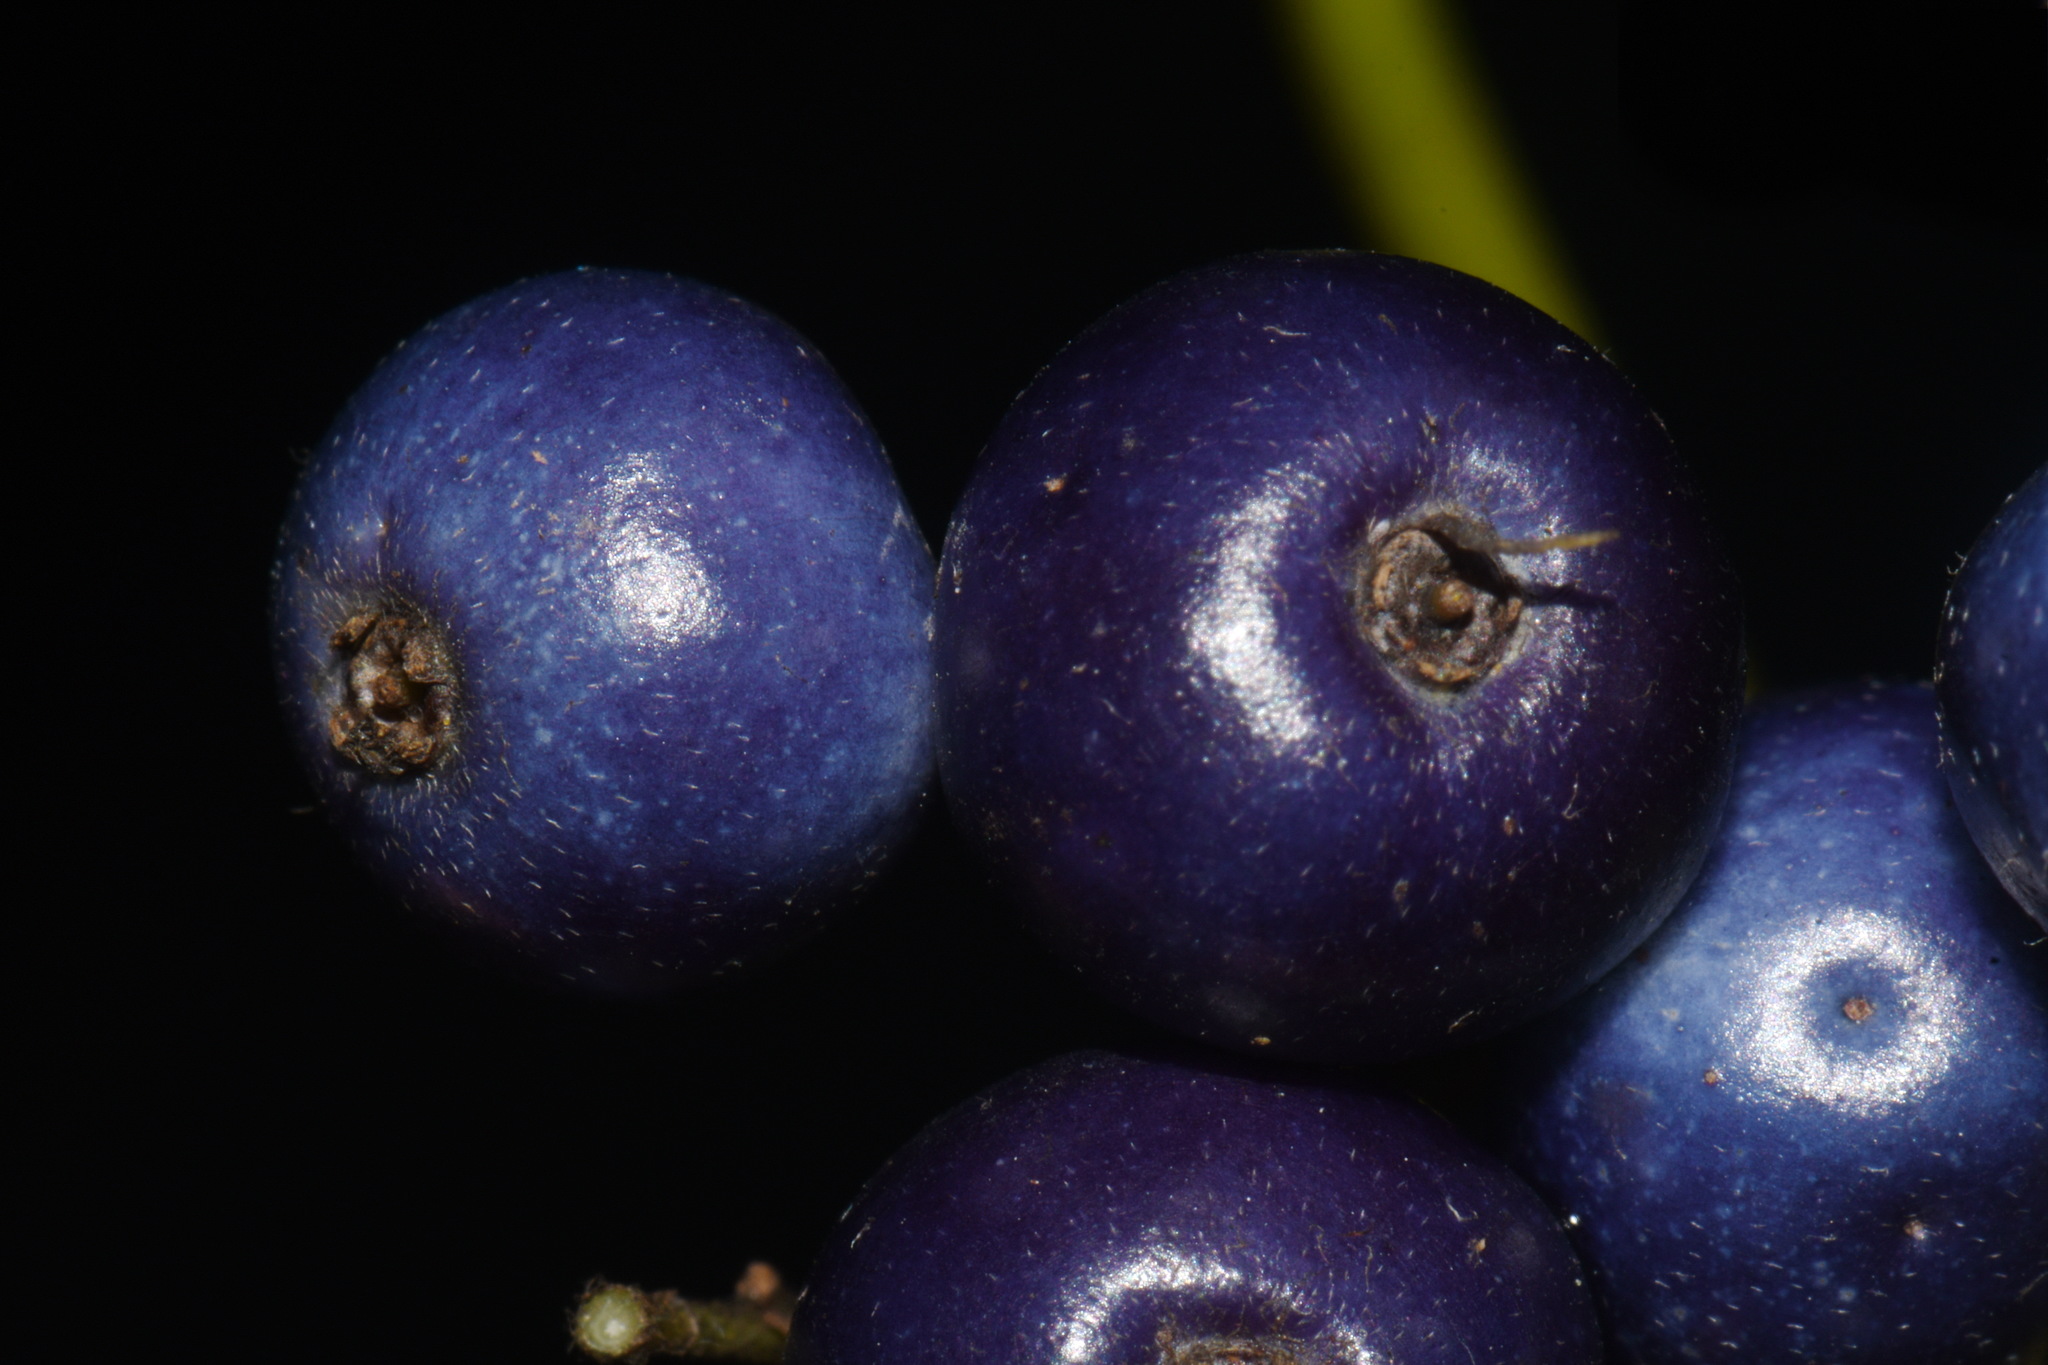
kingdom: Plantae
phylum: Tracheophyta
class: Magnoliopsida
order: Cornales
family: Cornaceae
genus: Cornus
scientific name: Cornus amomum
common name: Silky dogwood
